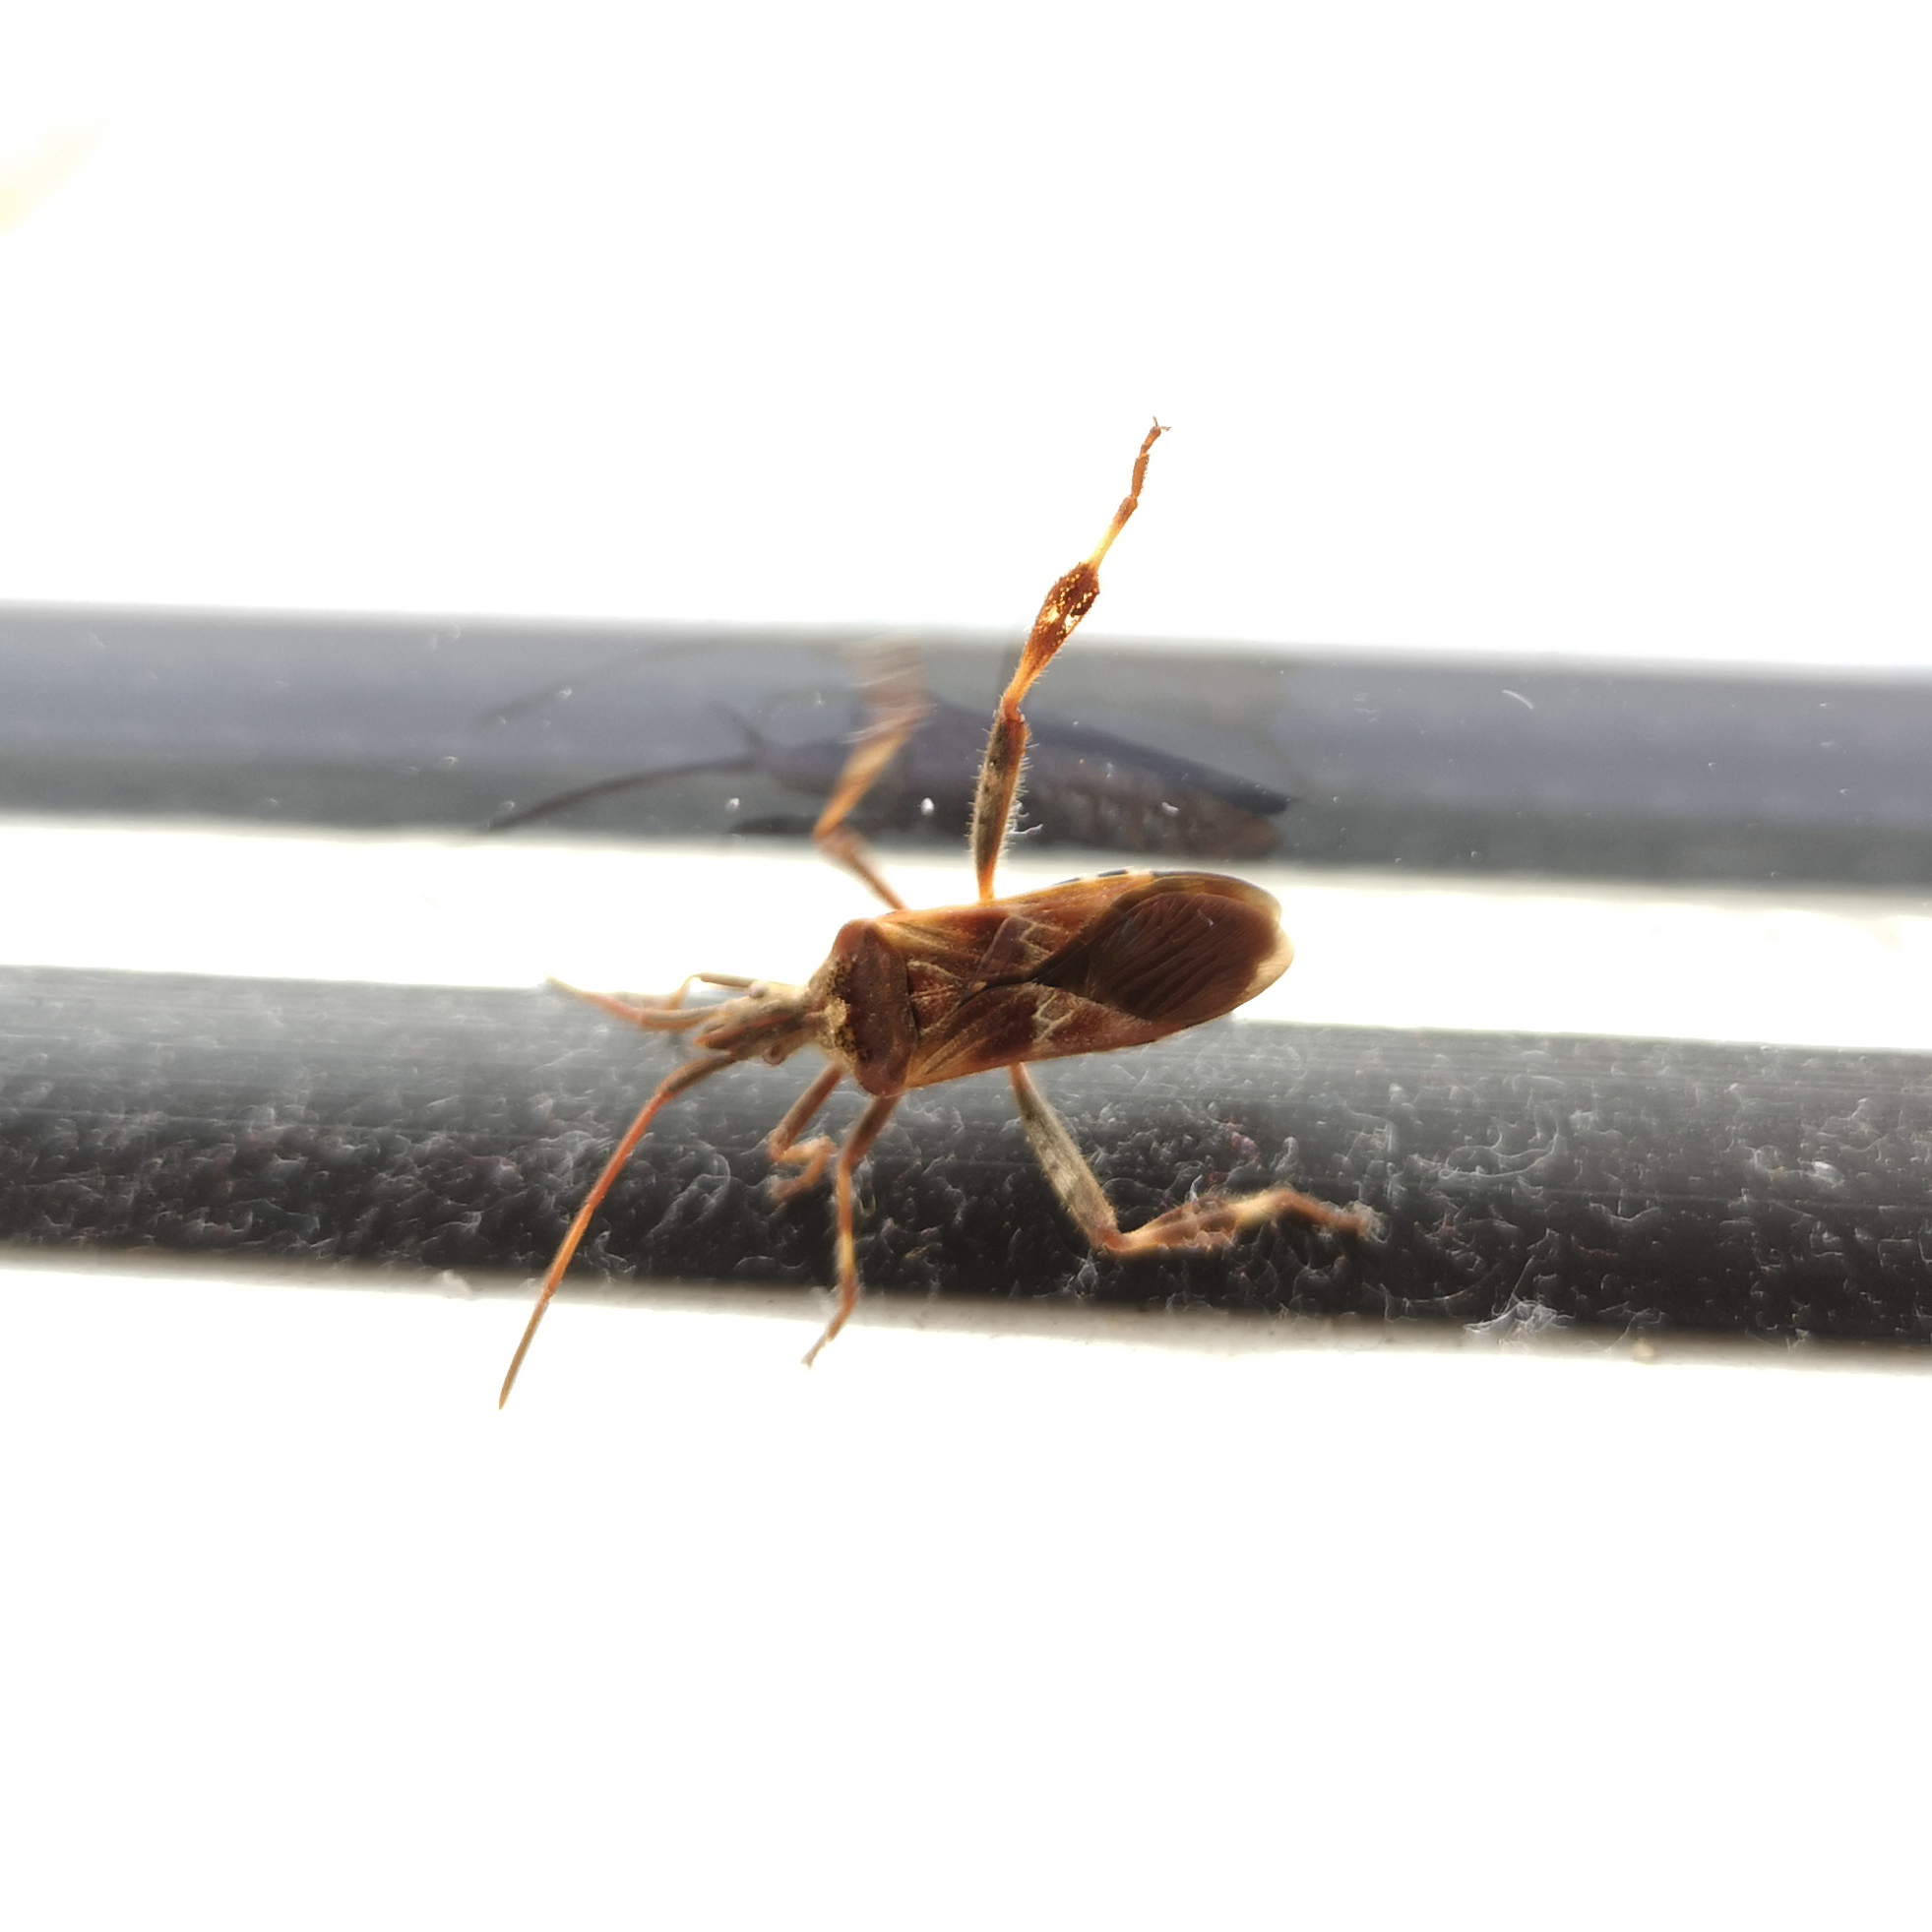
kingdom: Animalia
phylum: Arthropoda
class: Insecta
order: Hemiptera
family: Coreidae
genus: Leptoglossus
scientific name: Leptoglossus occidentalis
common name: Western conifer-seed bug
